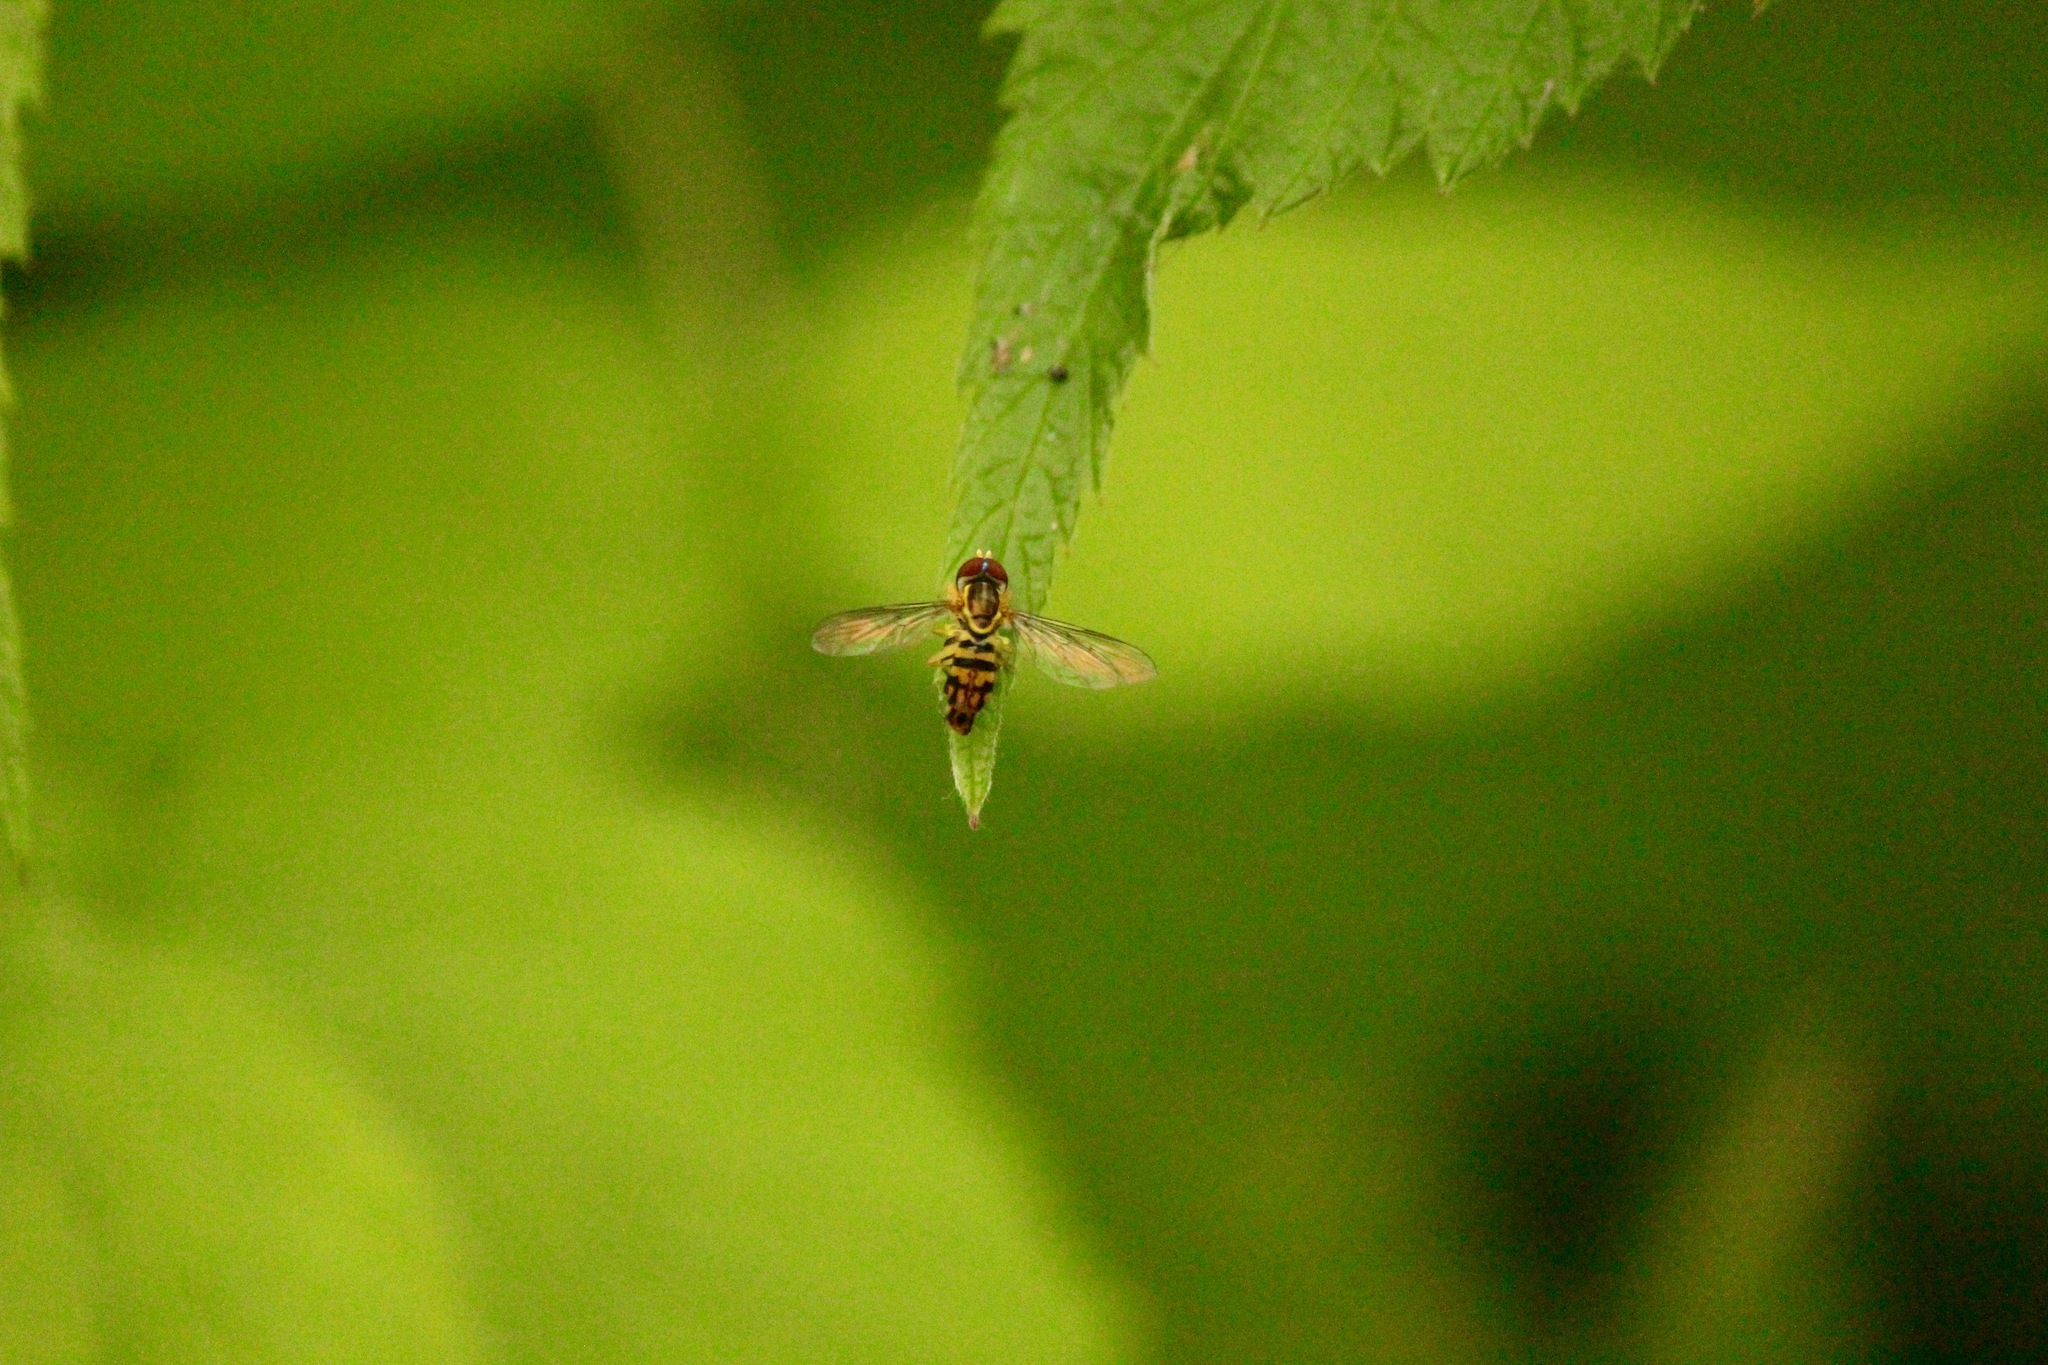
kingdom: Animalia
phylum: Arthropoda
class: Insecta
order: Diptera
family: Syrphidae
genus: Toxomerus
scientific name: Toxomerus geminatus
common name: Eastern calligrapher
